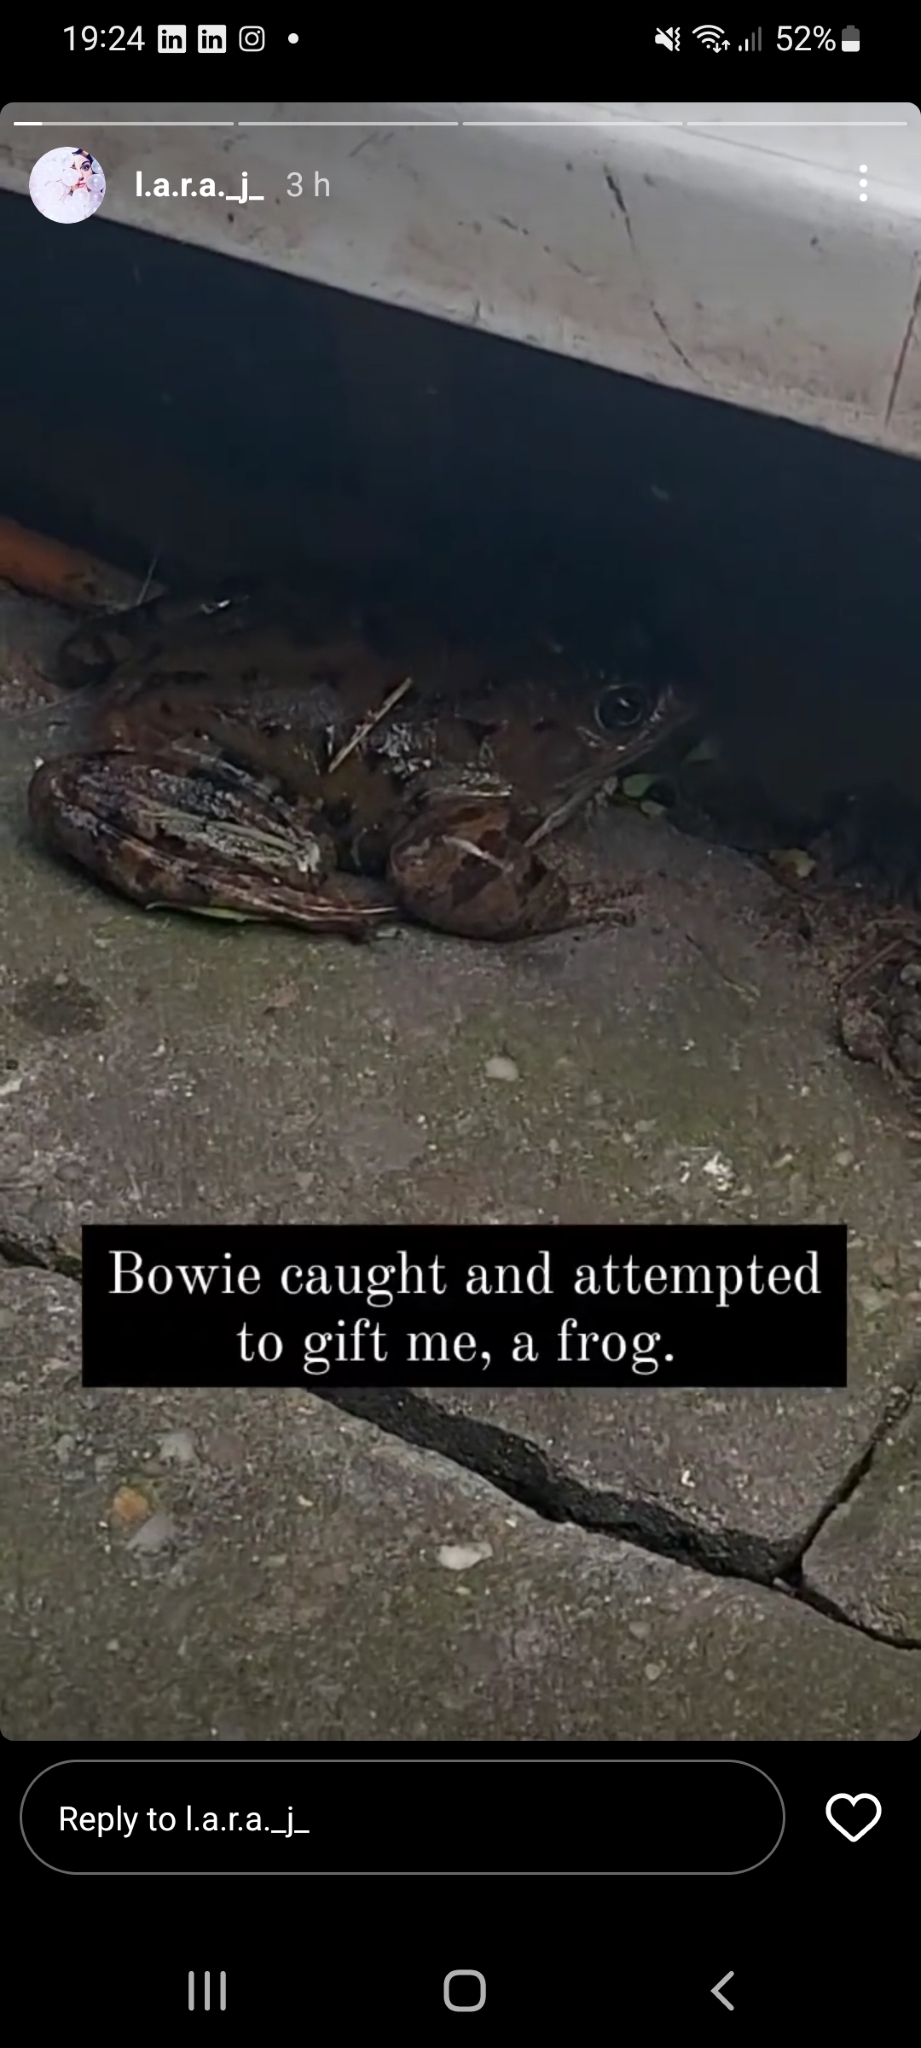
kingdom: Animalia
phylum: Chordata
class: Amphibia
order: Anura
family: Ranidae
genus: Rana
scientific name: Rana temporaria
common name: Common frog
